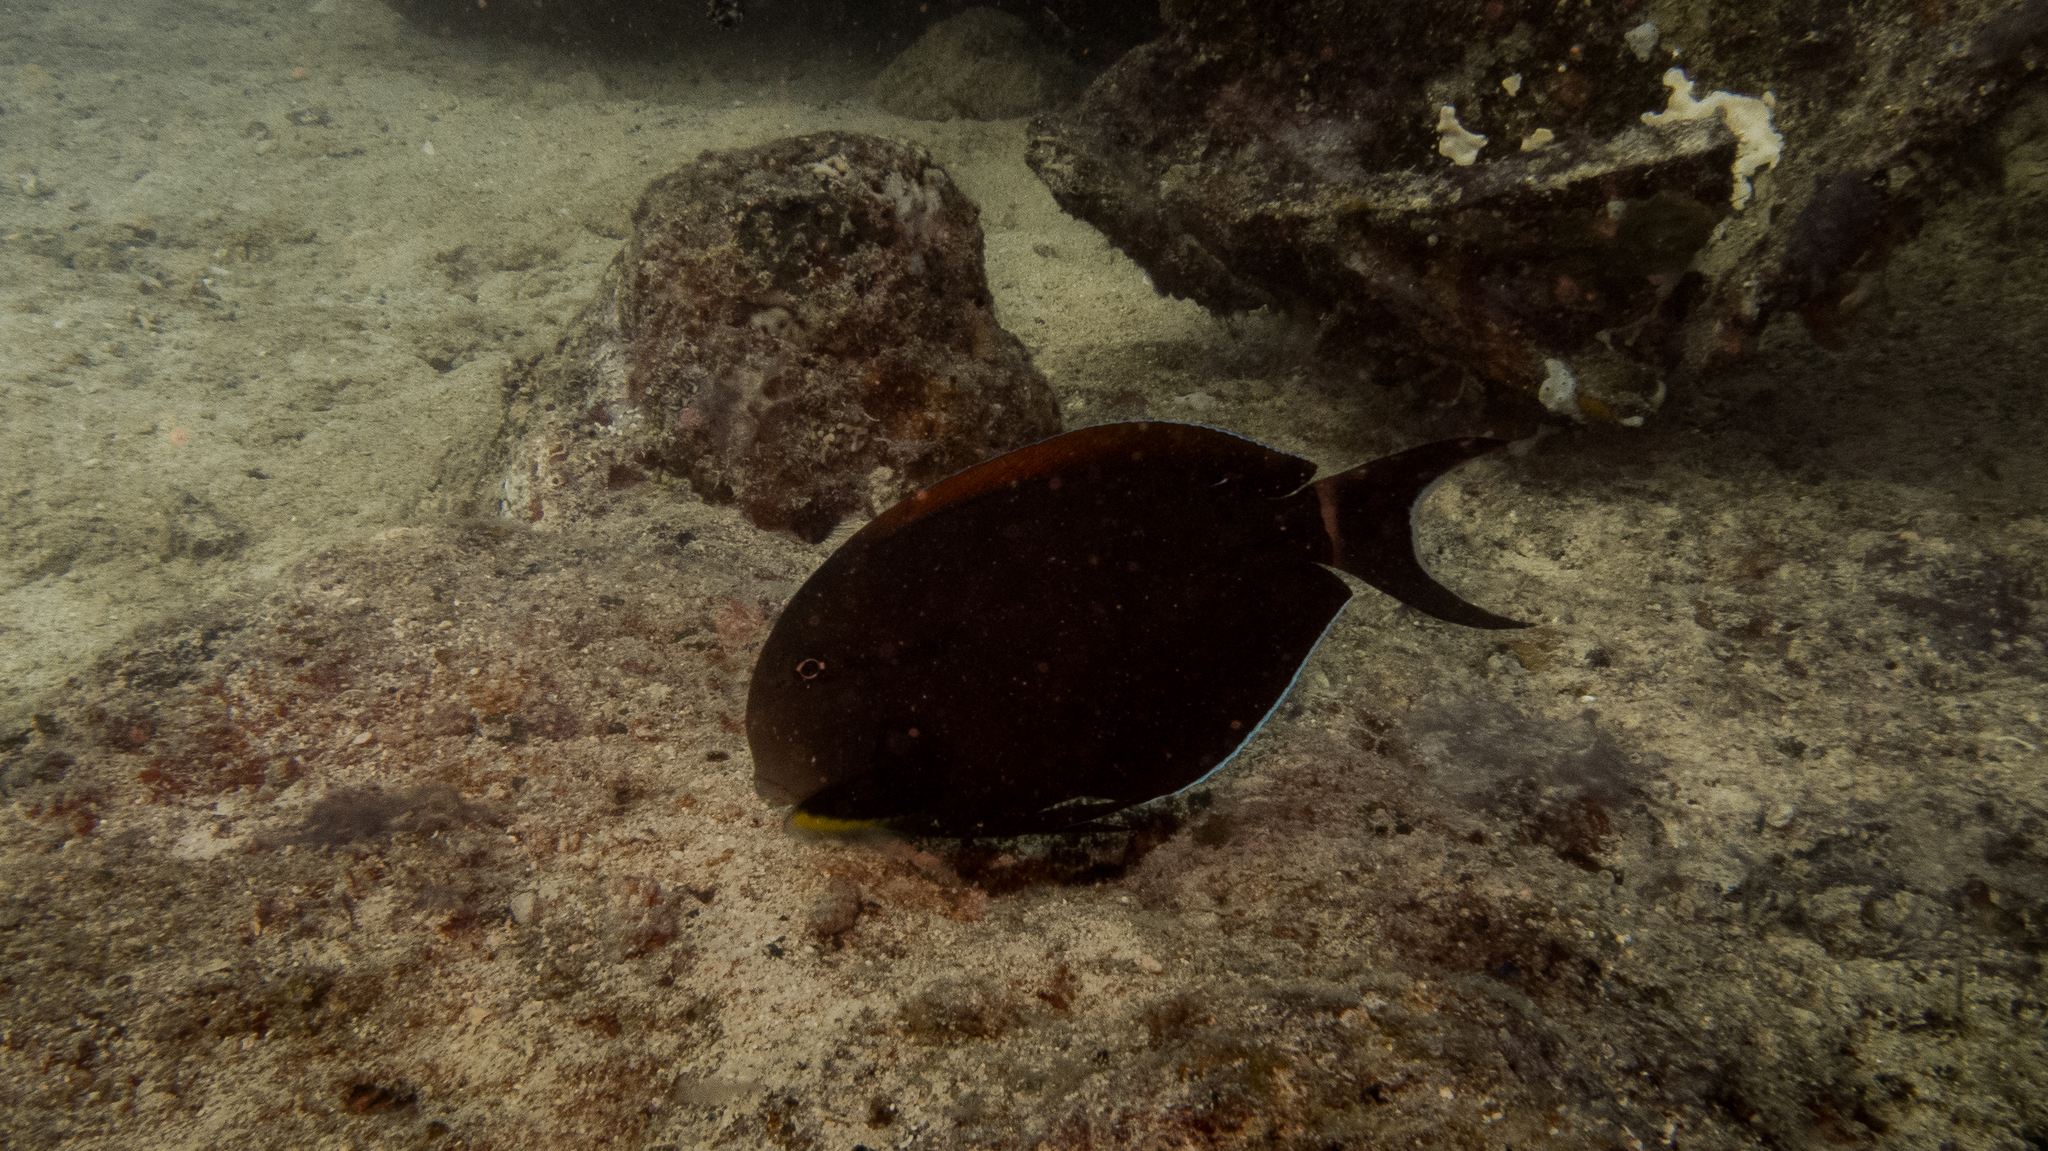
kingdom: Animalia
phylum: Chordata
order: Perciformes
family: Acanthuridae
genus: Acanthurus
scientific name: Acanthurus nigricauda
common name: Black-barred surgeonfish
